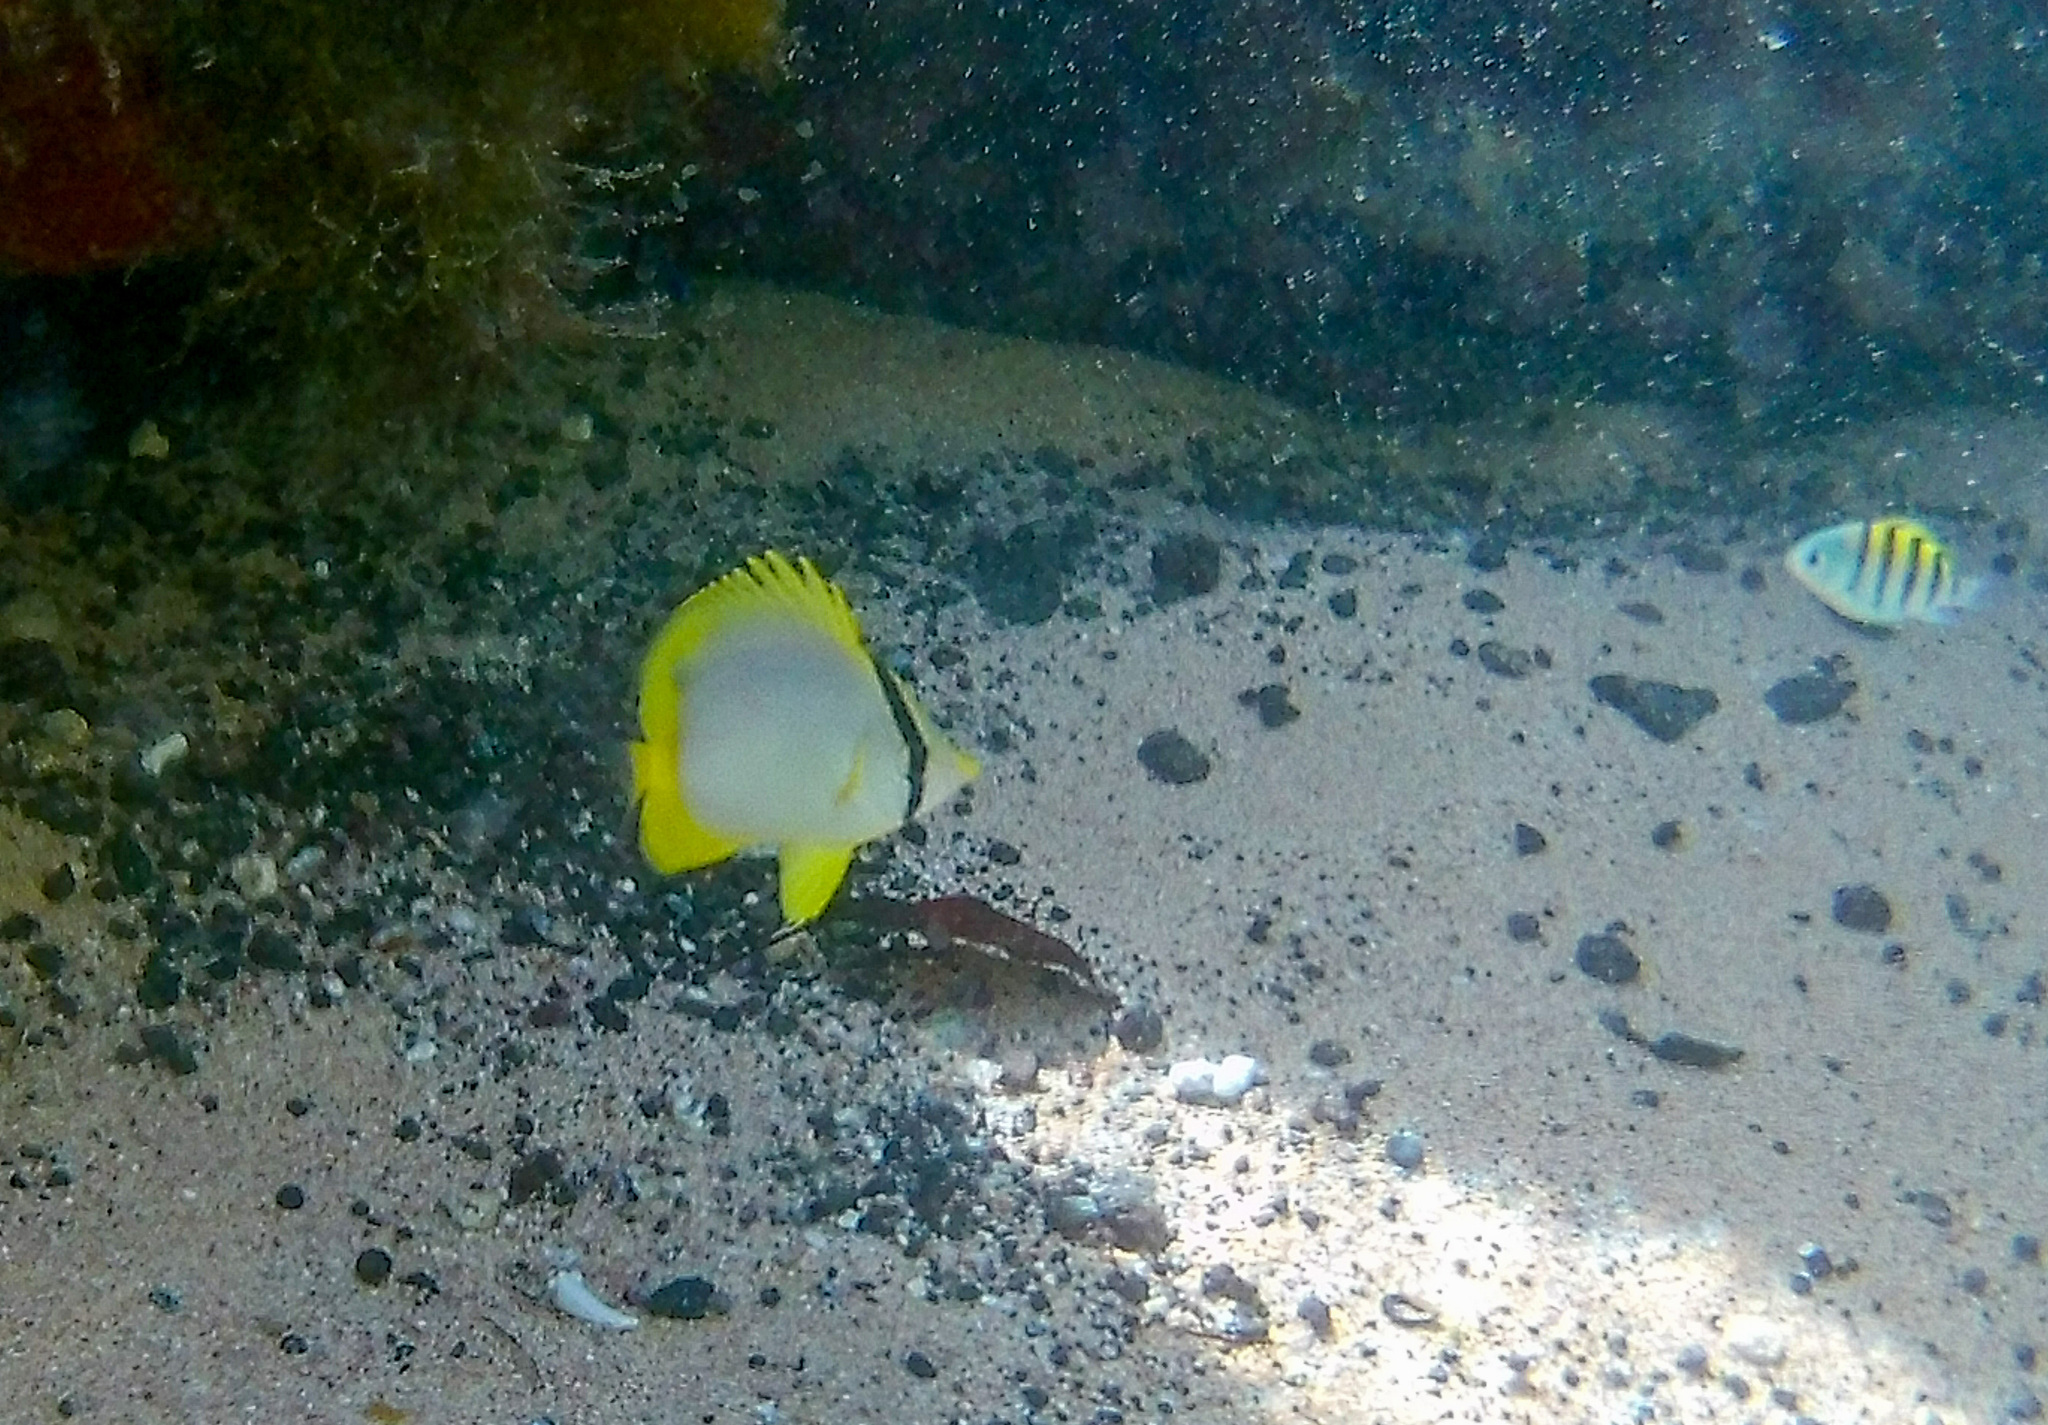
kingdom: Animalia
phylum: Chordata
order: Perciformes
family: Chaetodontidae
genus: Chaetodon
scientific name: Chaetodon ocellatus
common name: Spotfin butterflyfish
